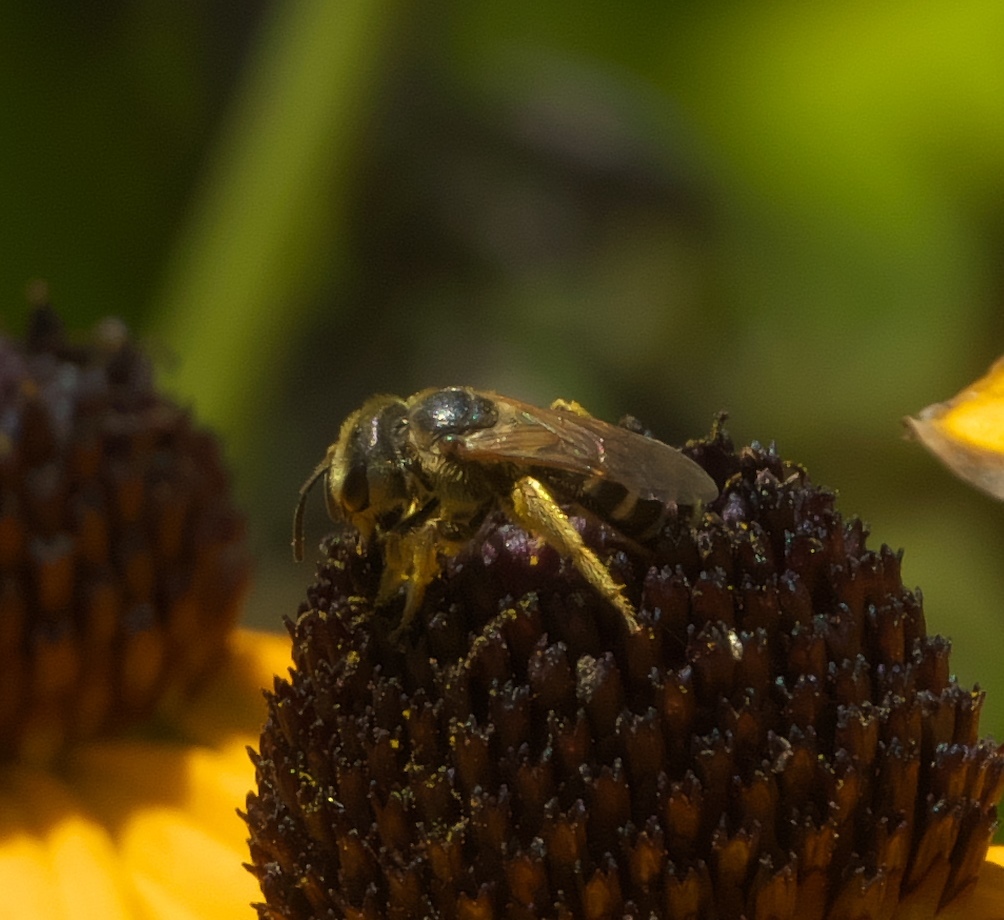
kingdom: Animalia
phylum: Arthropoda
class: Insecta
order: Hymenoptera
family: Halictidae
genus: Halictus
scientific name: Halictus ligatus
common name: Ligated furrow bee
